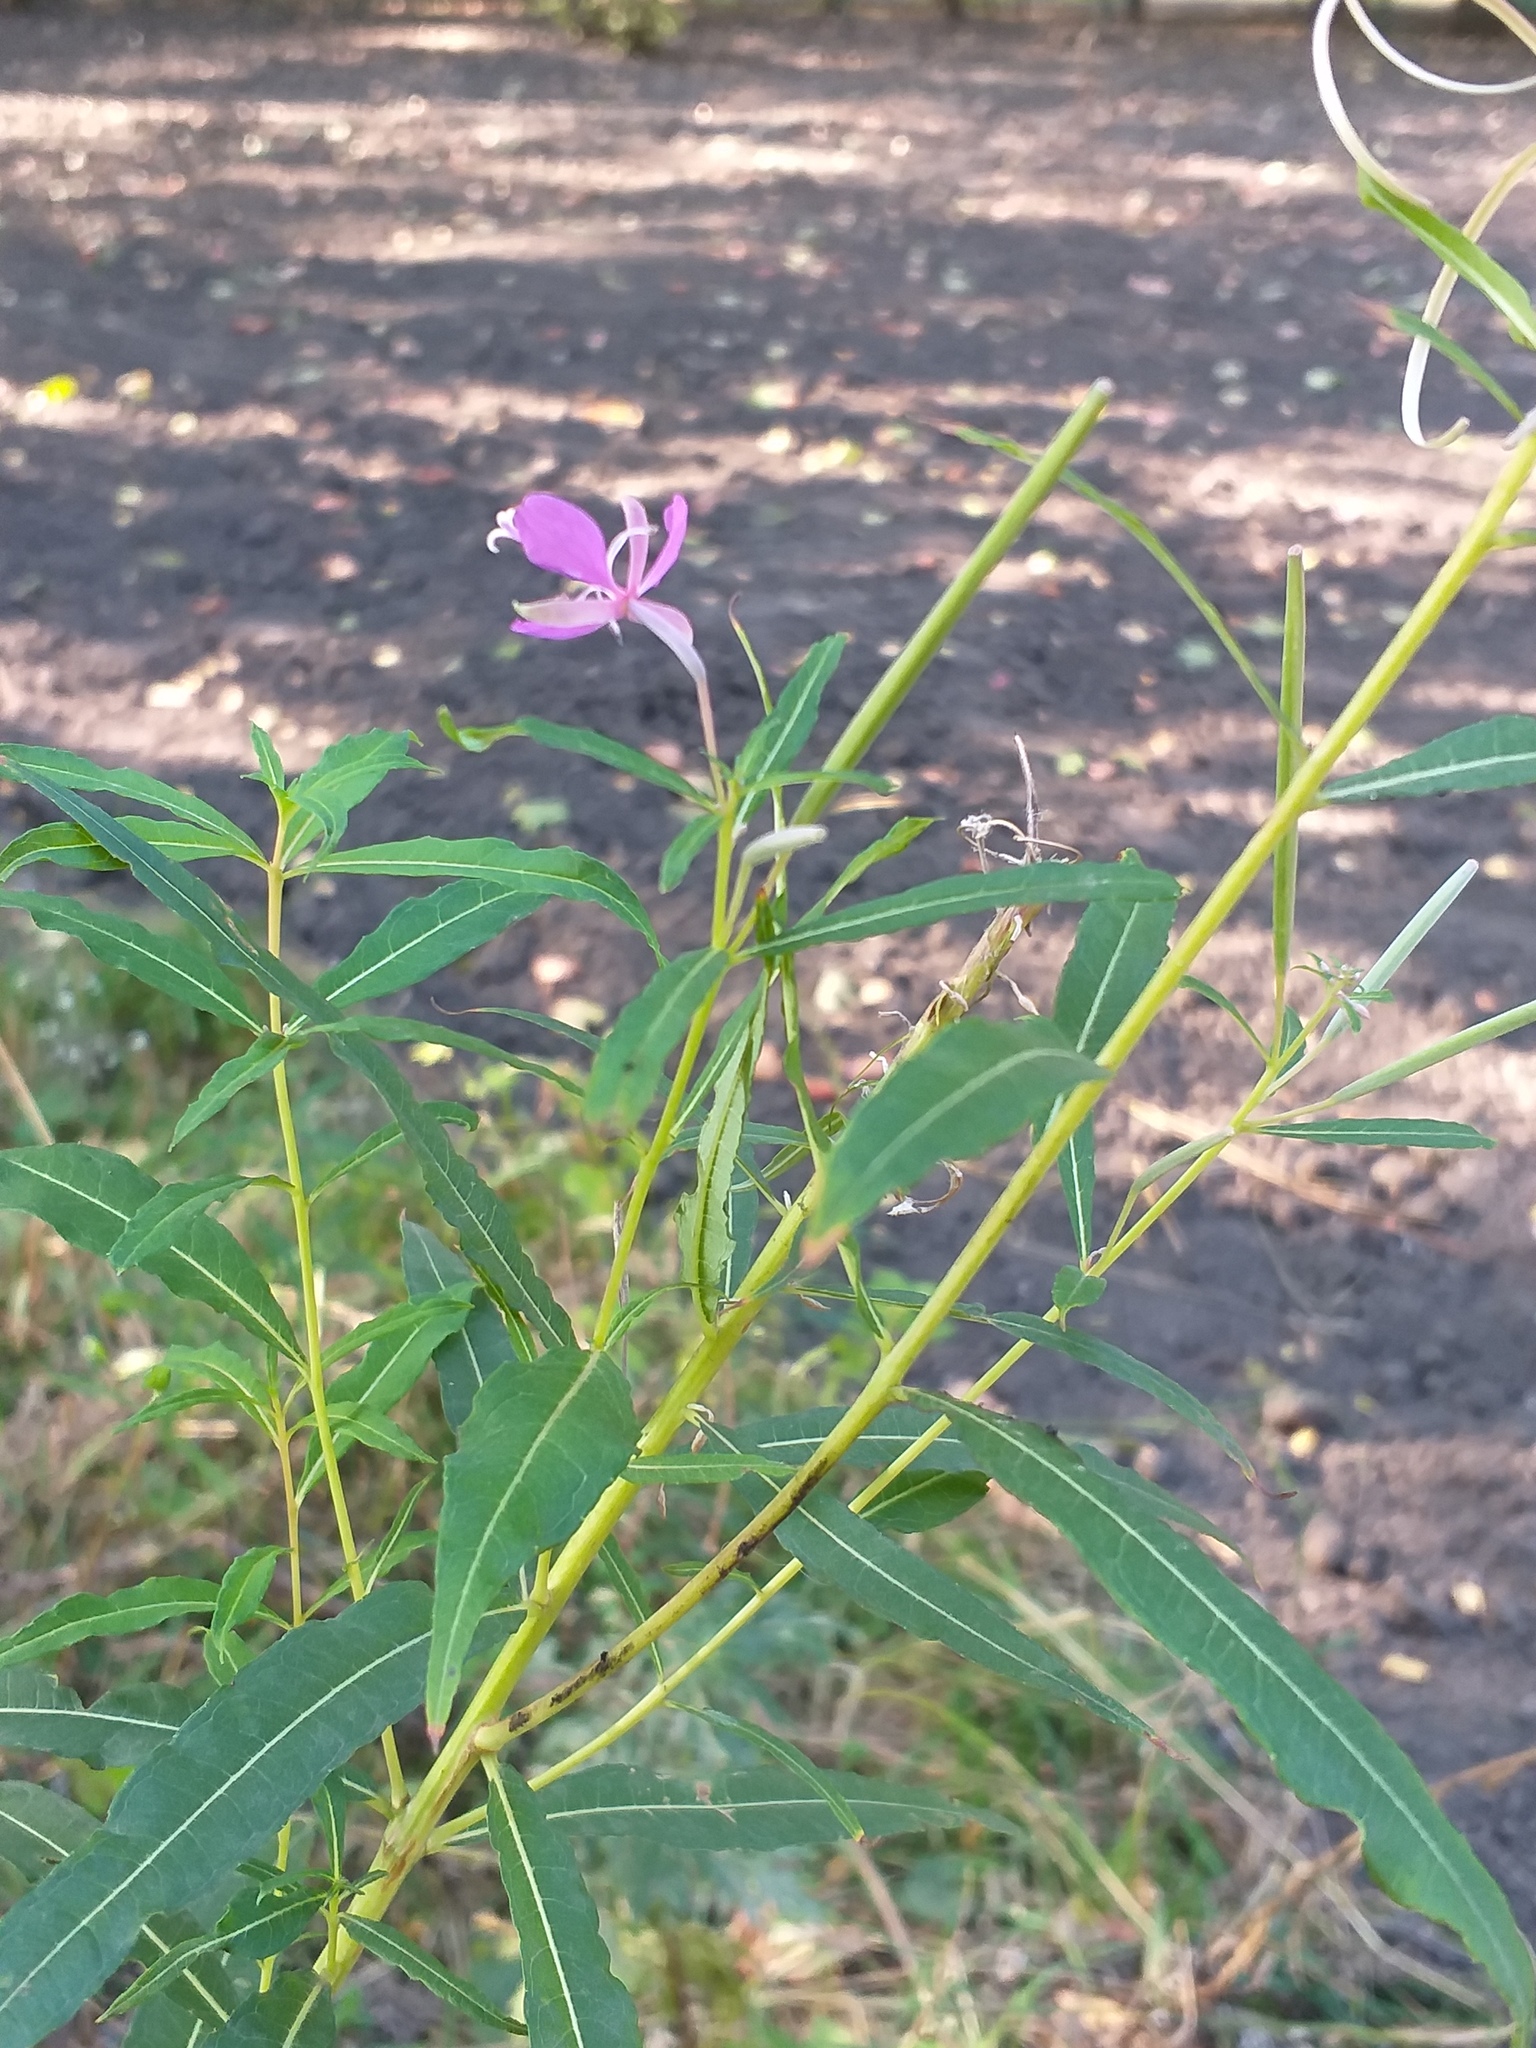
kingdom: Plantae
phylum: Tracheophyta
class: Magnoliopsida
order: Myrtales
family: Onagraceae
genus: Chamaenerion
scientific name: Chamaenerion angustifolium
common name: Fireweed
